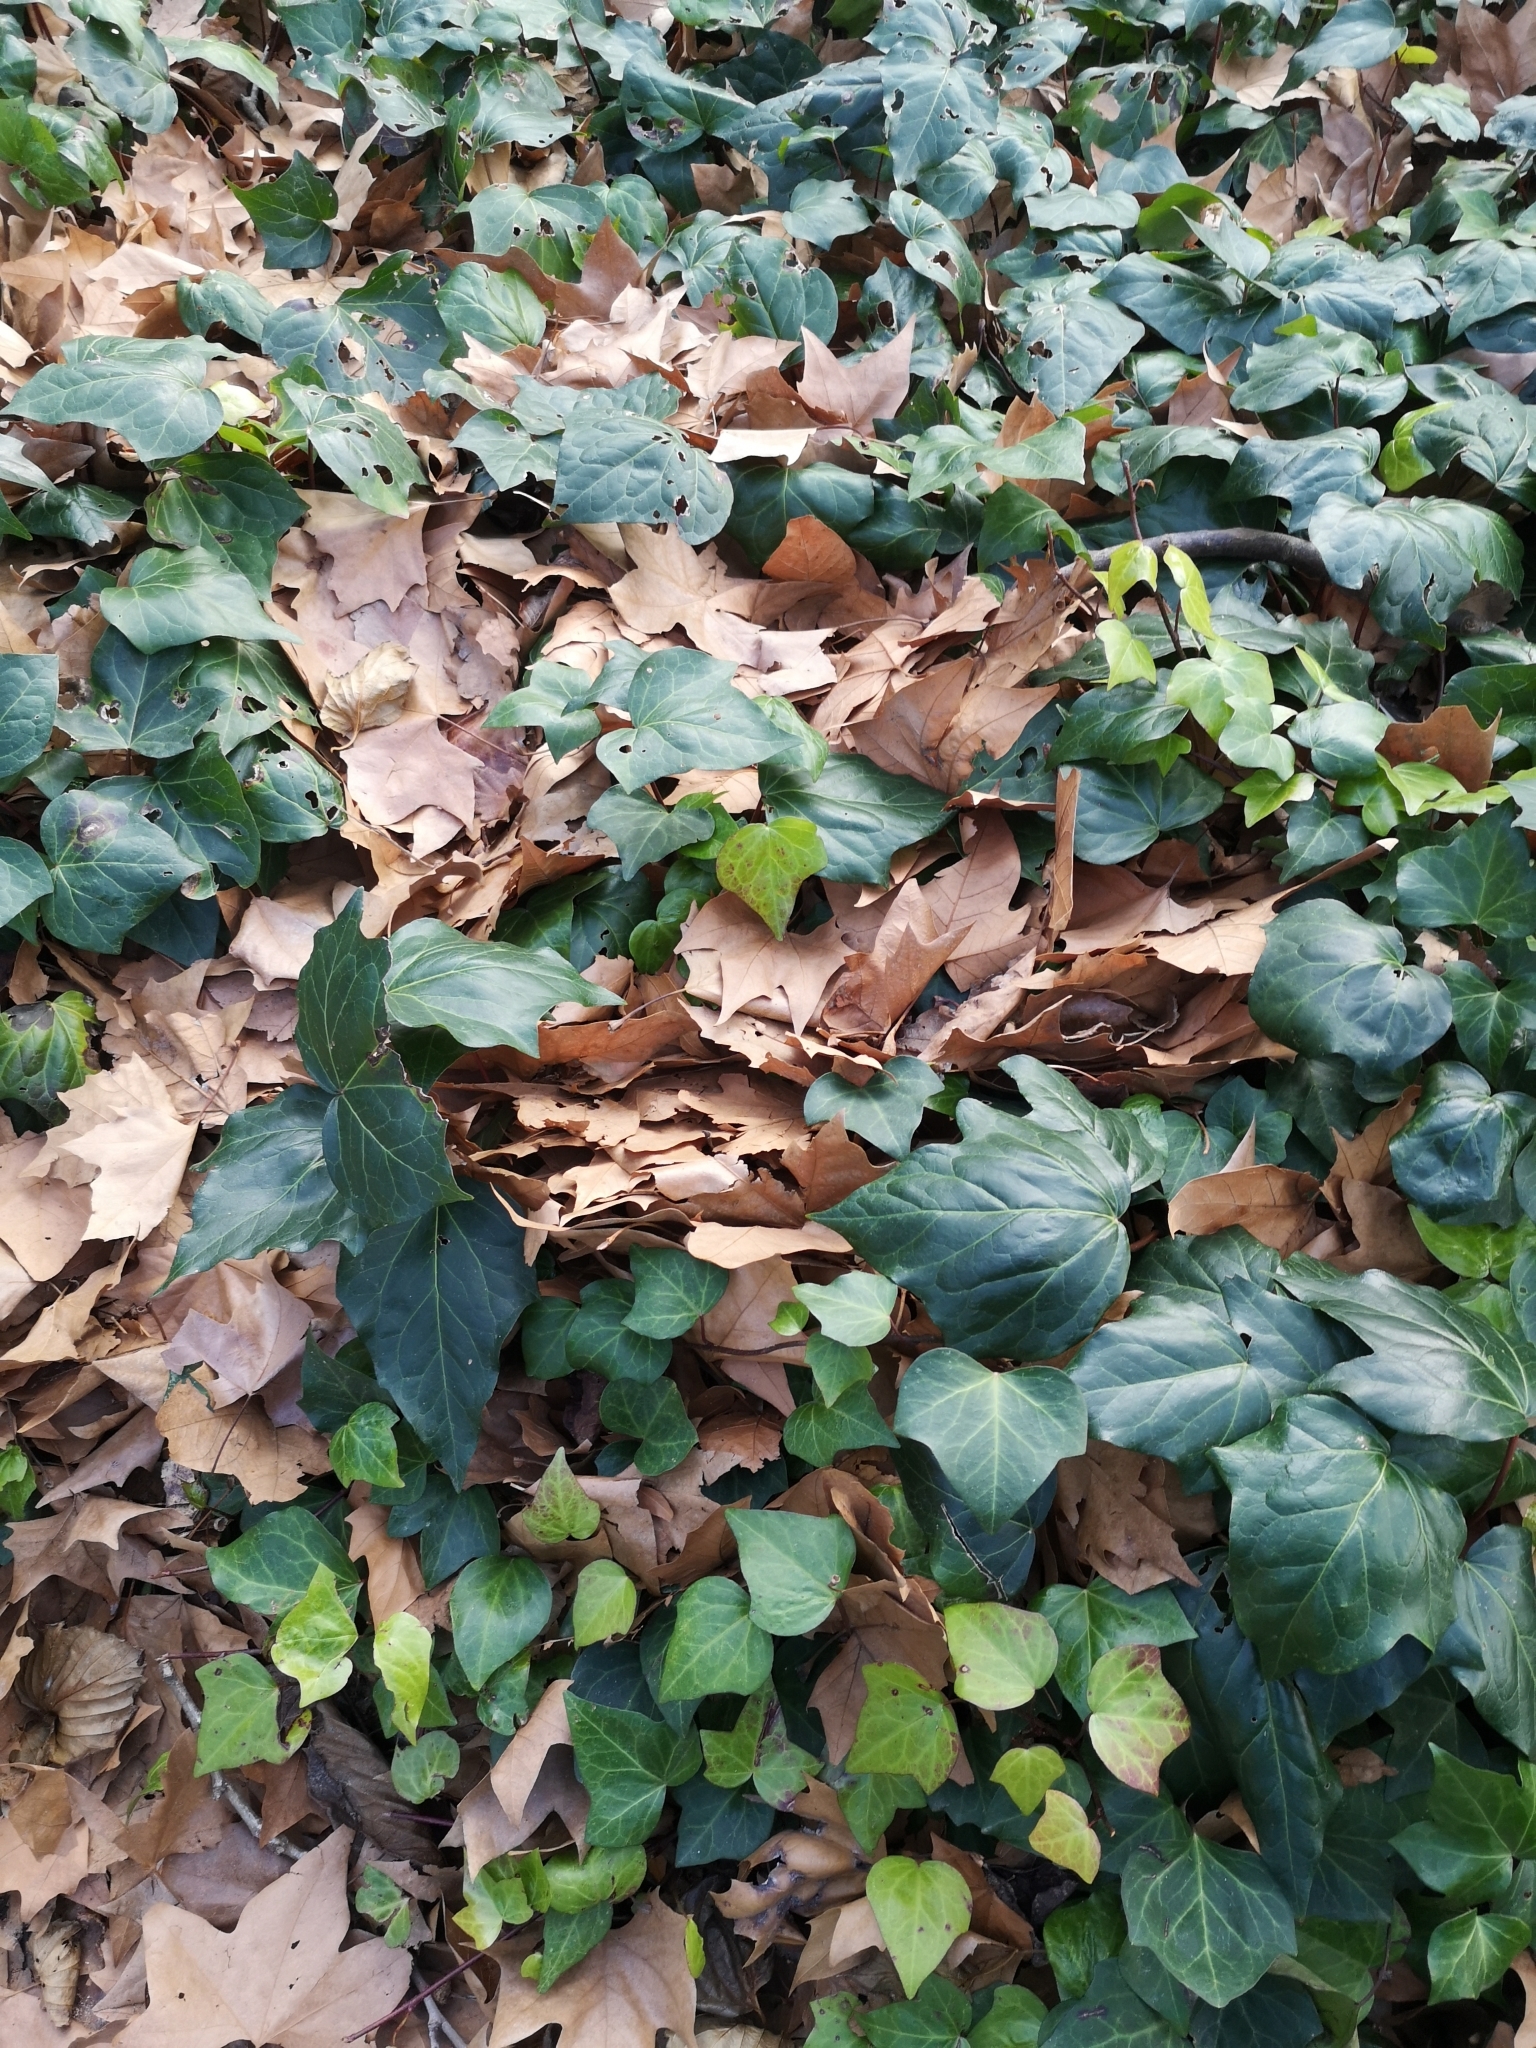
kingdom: Plantae
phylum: Tracheophyta
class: Magnoliopsida
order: Apiales
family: Araliaceae
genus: Hedera
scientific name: Hedera helix
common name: Ivy
